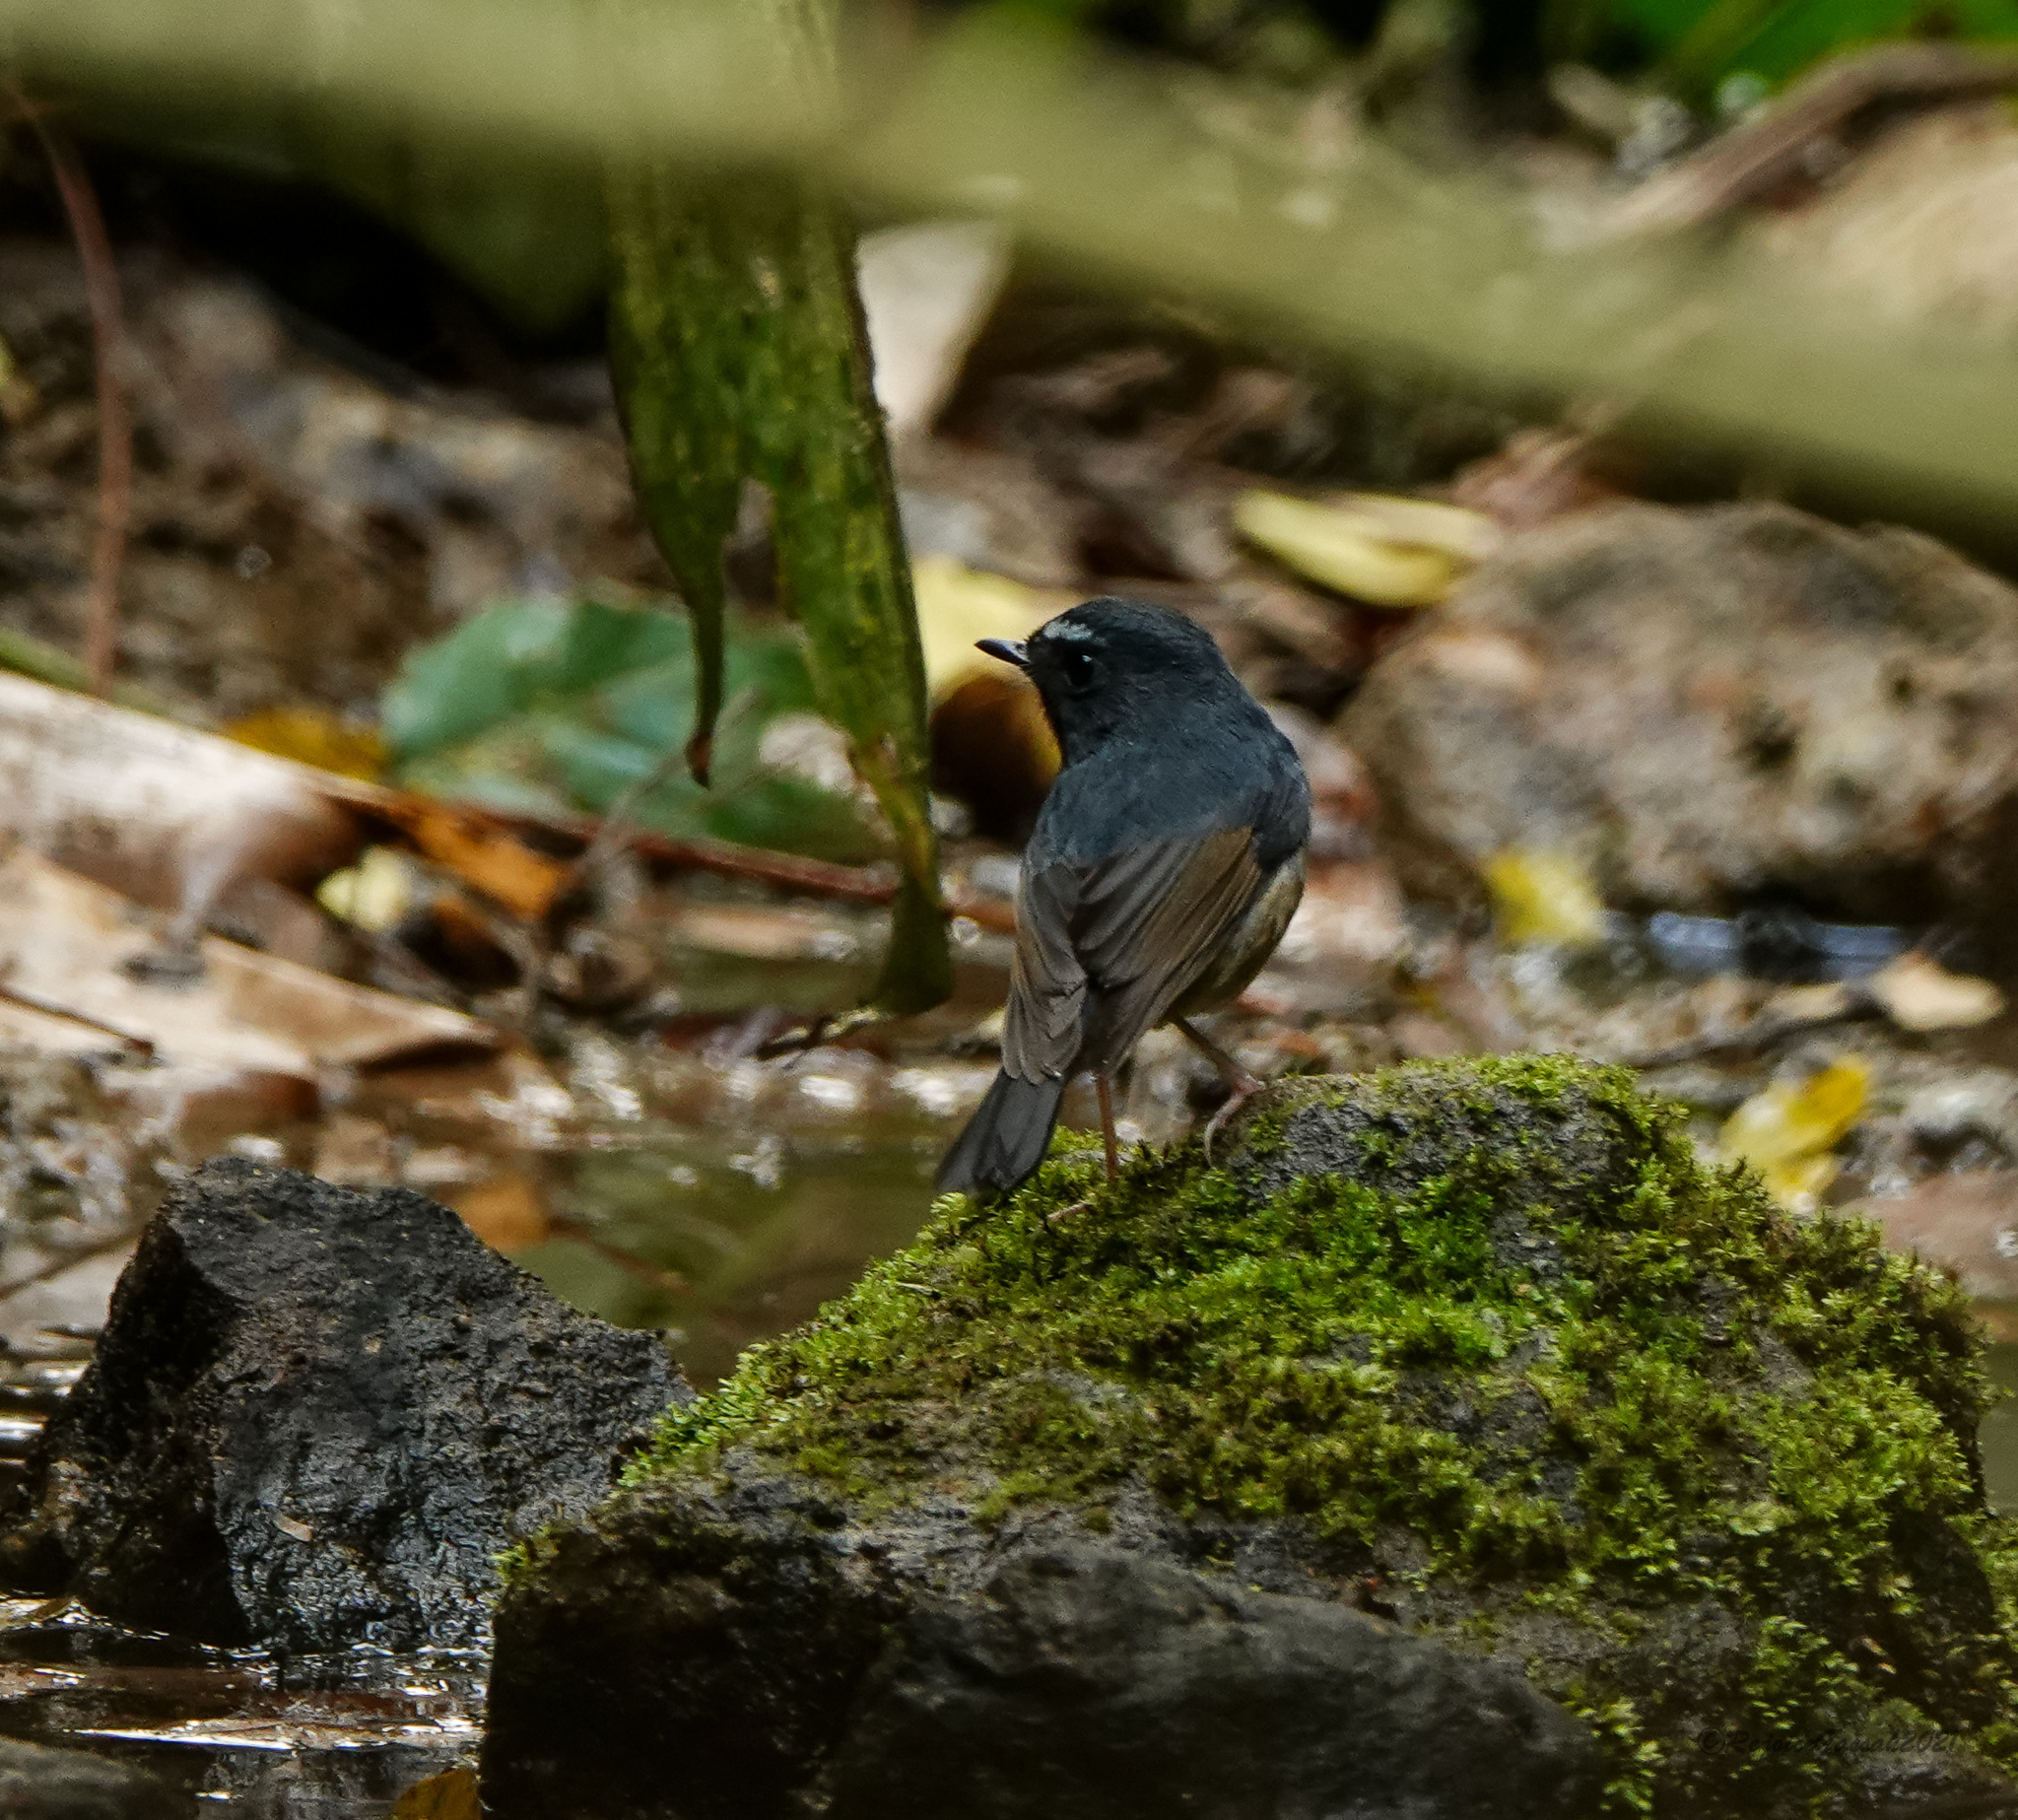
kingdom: Animalia
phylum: Chordata
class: Aves
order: Passeriformes
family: Muscicapidae
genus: Ficedula
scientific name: Ficedula hyperythra
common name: Snowy-browed flycatcher
